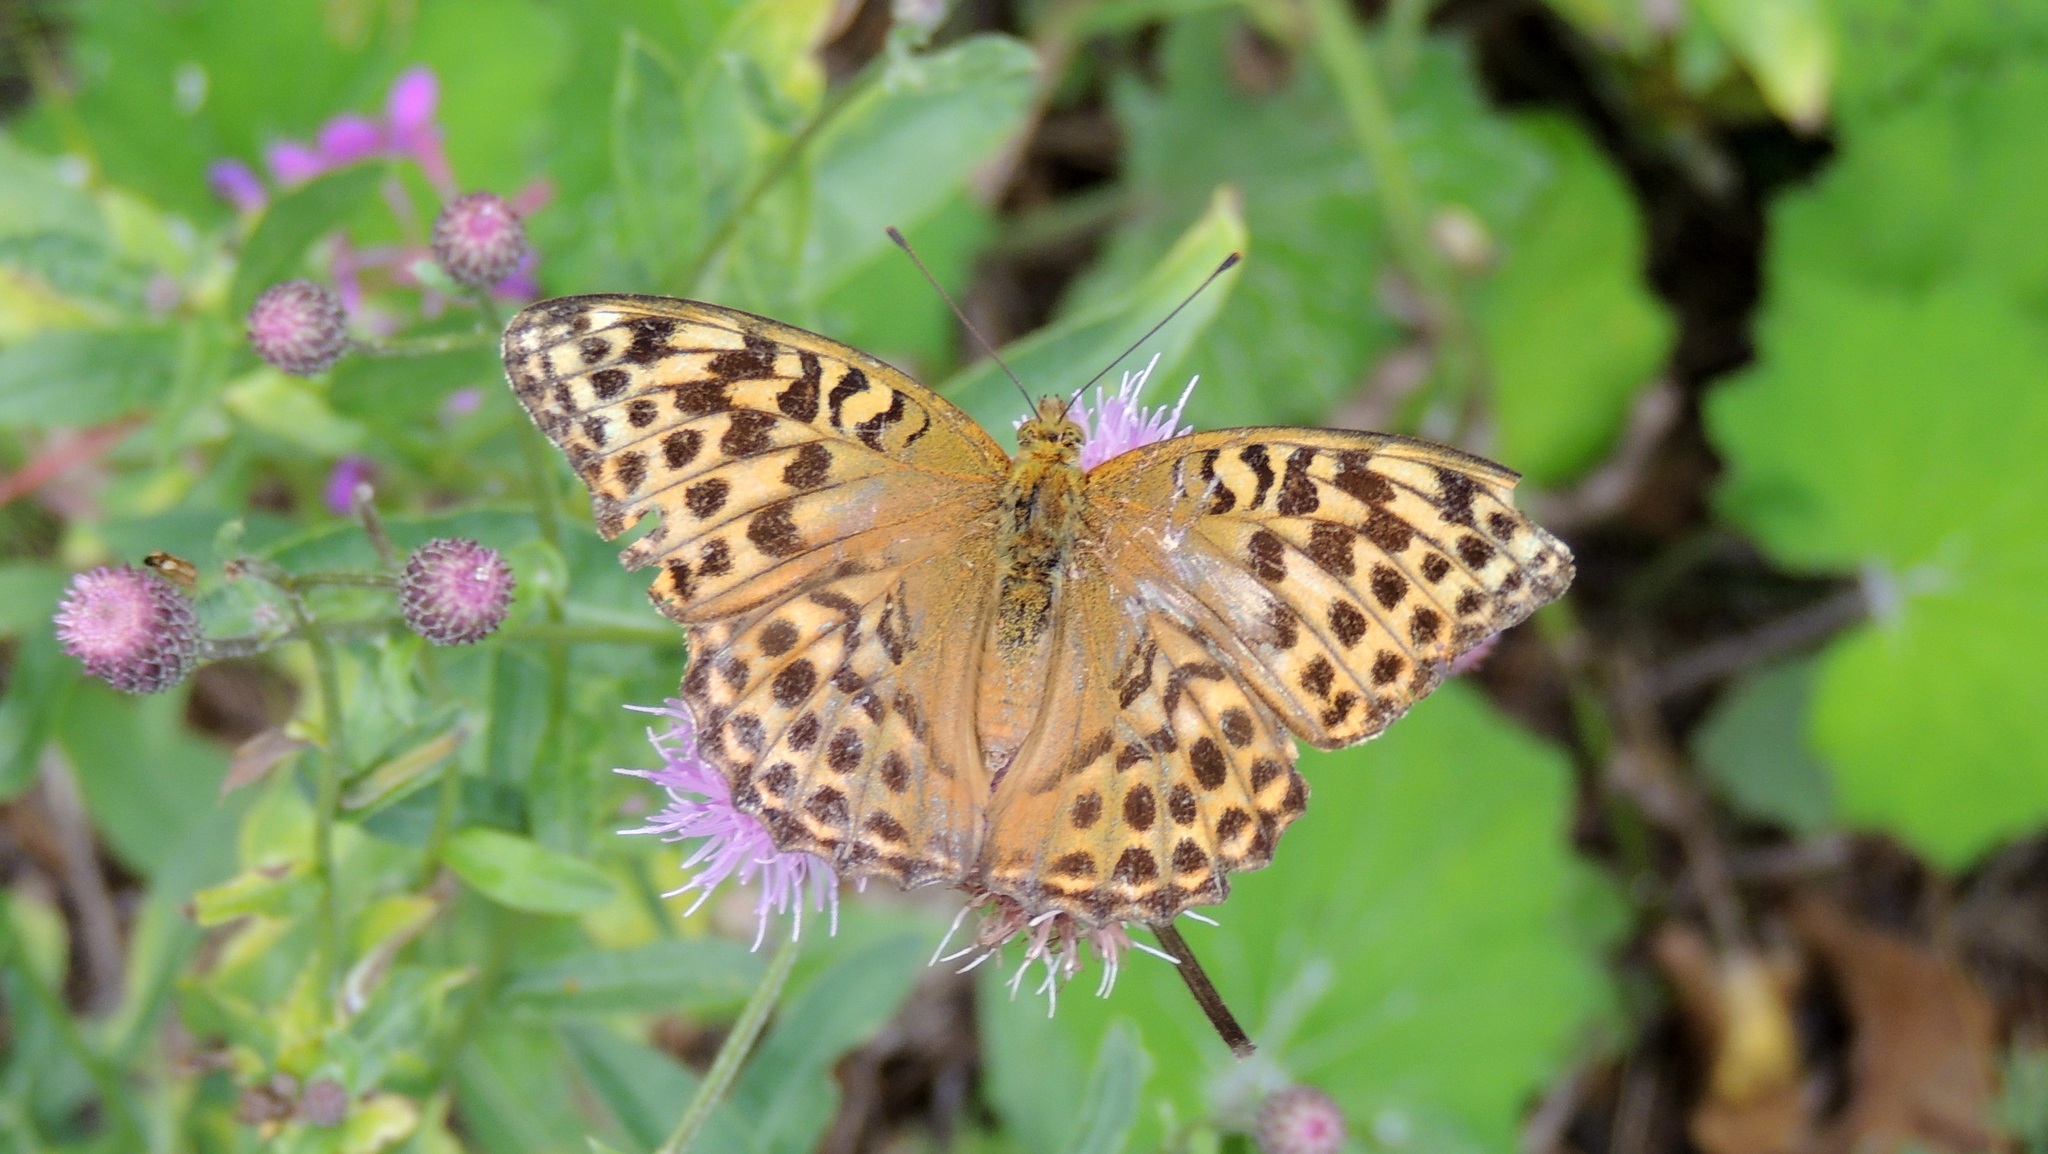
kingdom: Animalia
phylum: Arthropoda
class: Insecta
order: Lepidoptera
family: Nymphalidae
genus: Argynnis
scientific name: Argynnis paphia
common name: Silver-washed fritillary
